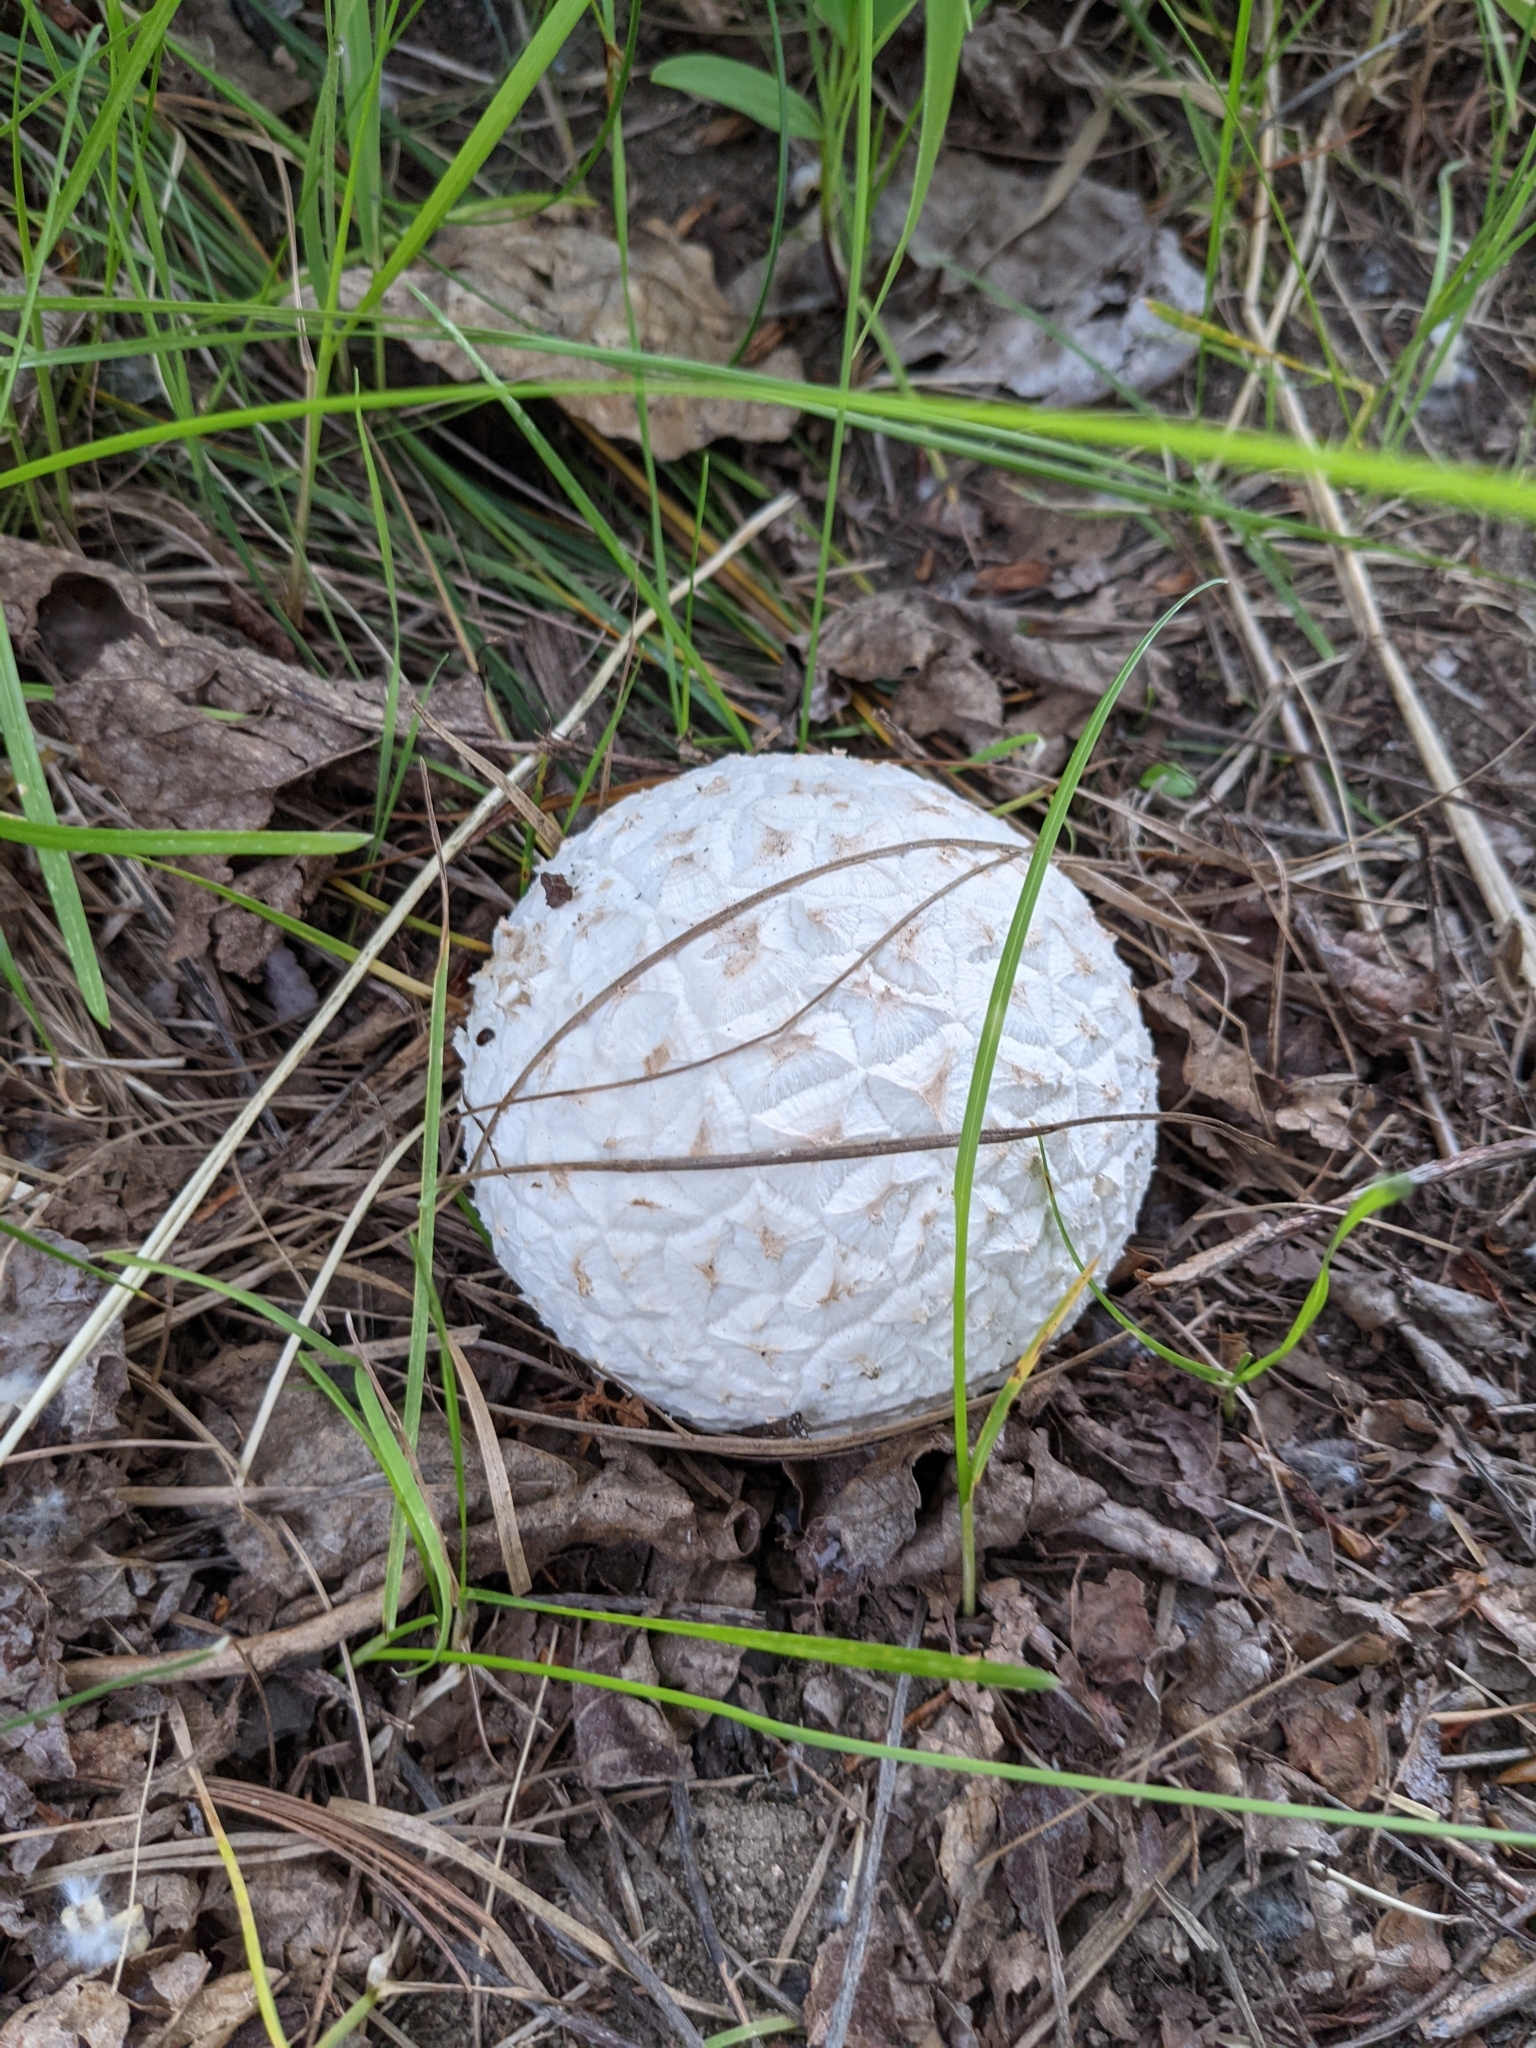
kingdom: Fungi
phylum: Basidiomycota
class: Agaricomycetes
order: Agaricales
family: Lycoperdaceae
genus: Calbovista
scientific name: Calbovista subsculpta
